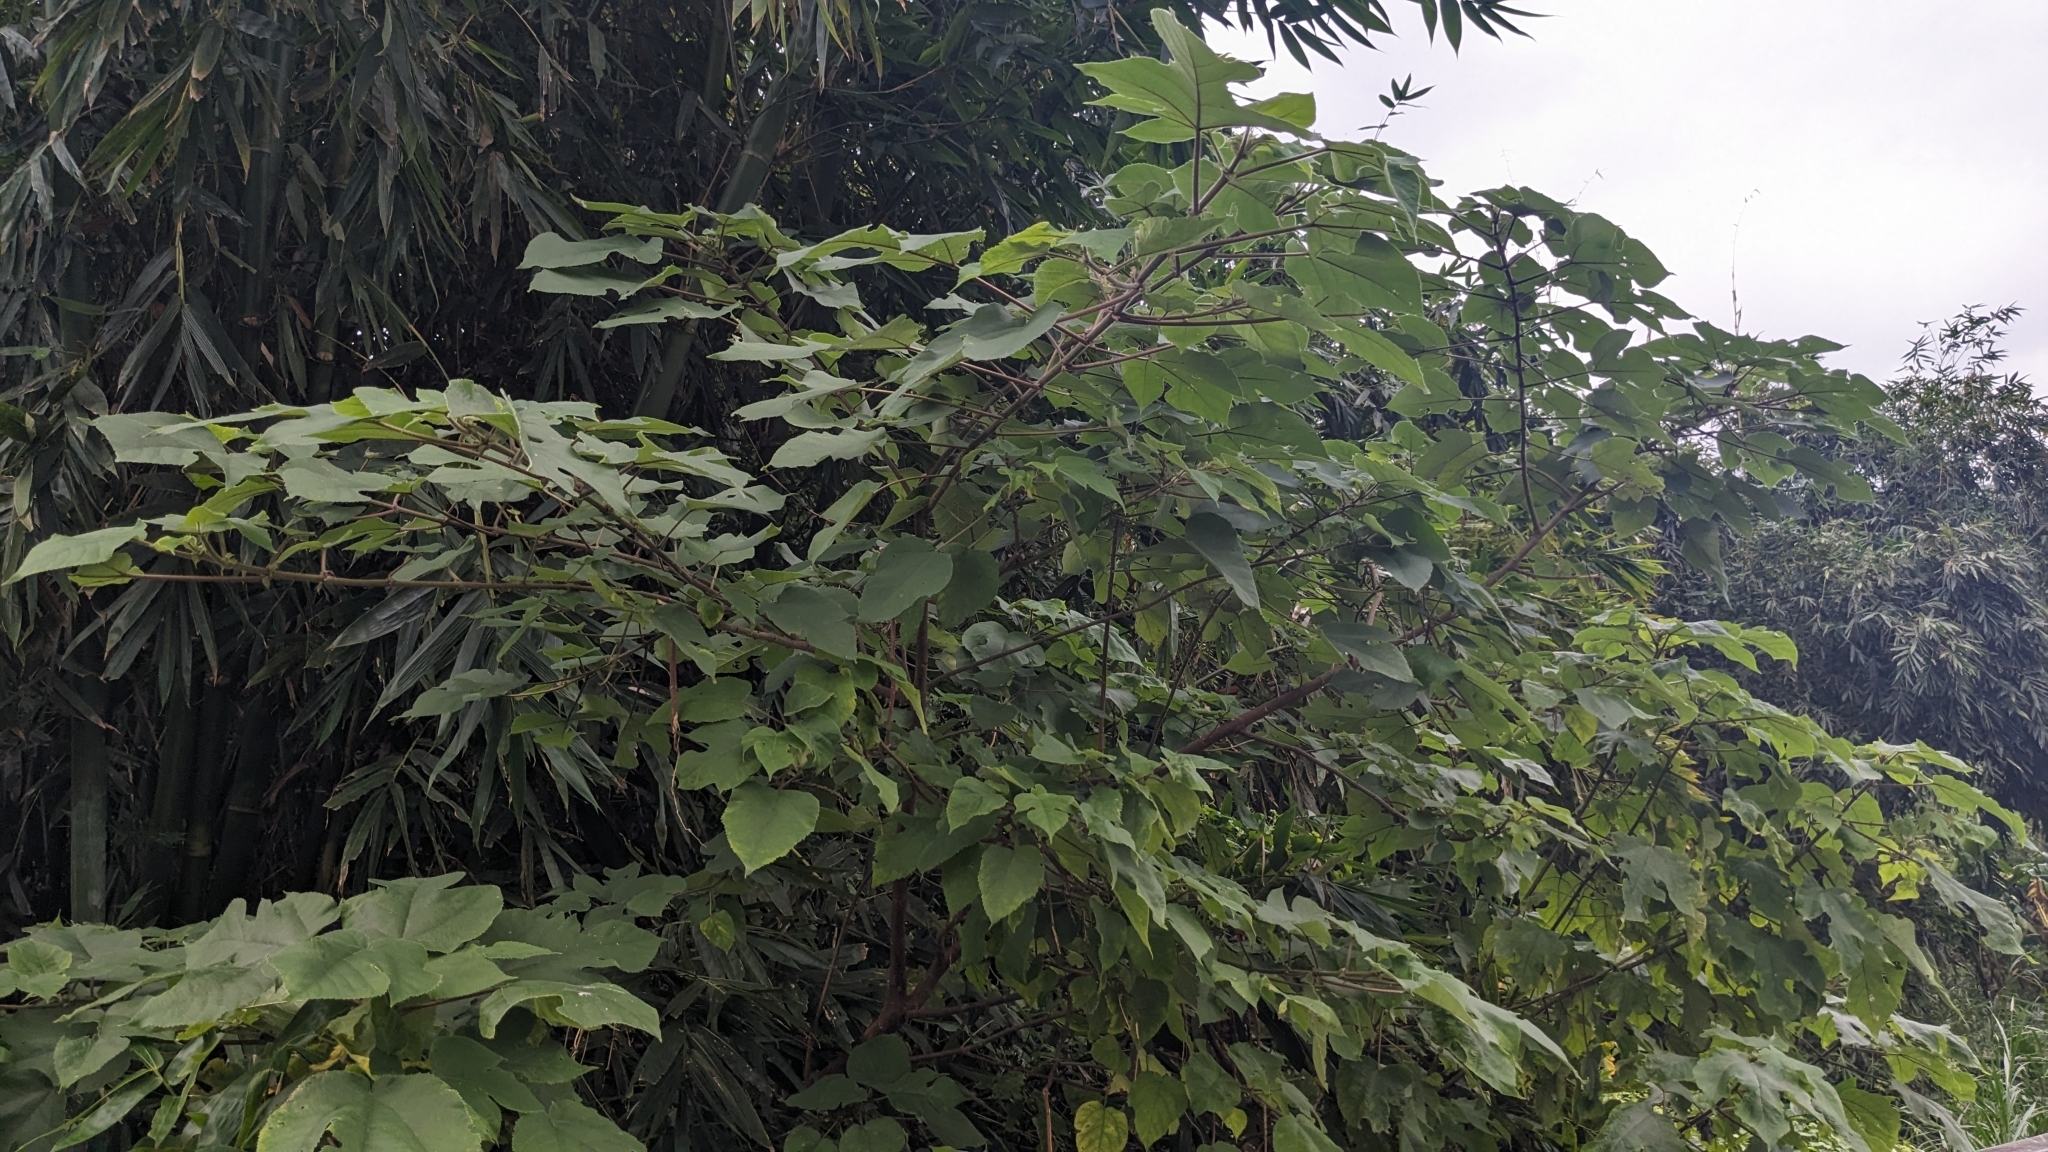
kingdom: Plantae
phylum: Tracheophyta
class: Magnoliopsida
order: Rosales
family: Moraceae
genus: Broussonetia
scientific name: Broussonetia papyrifera
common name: Paper mulberry
